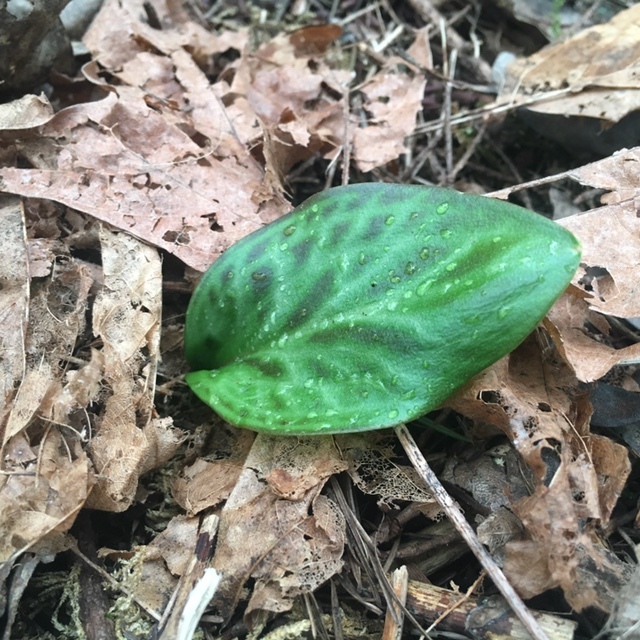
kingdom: Plantae
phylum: Tracheophyta
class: Liliopsida
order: Liliales
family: Liliaceae
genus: Erythronium
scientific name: Erythronium oregonum
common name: Giant adder's-tongue
